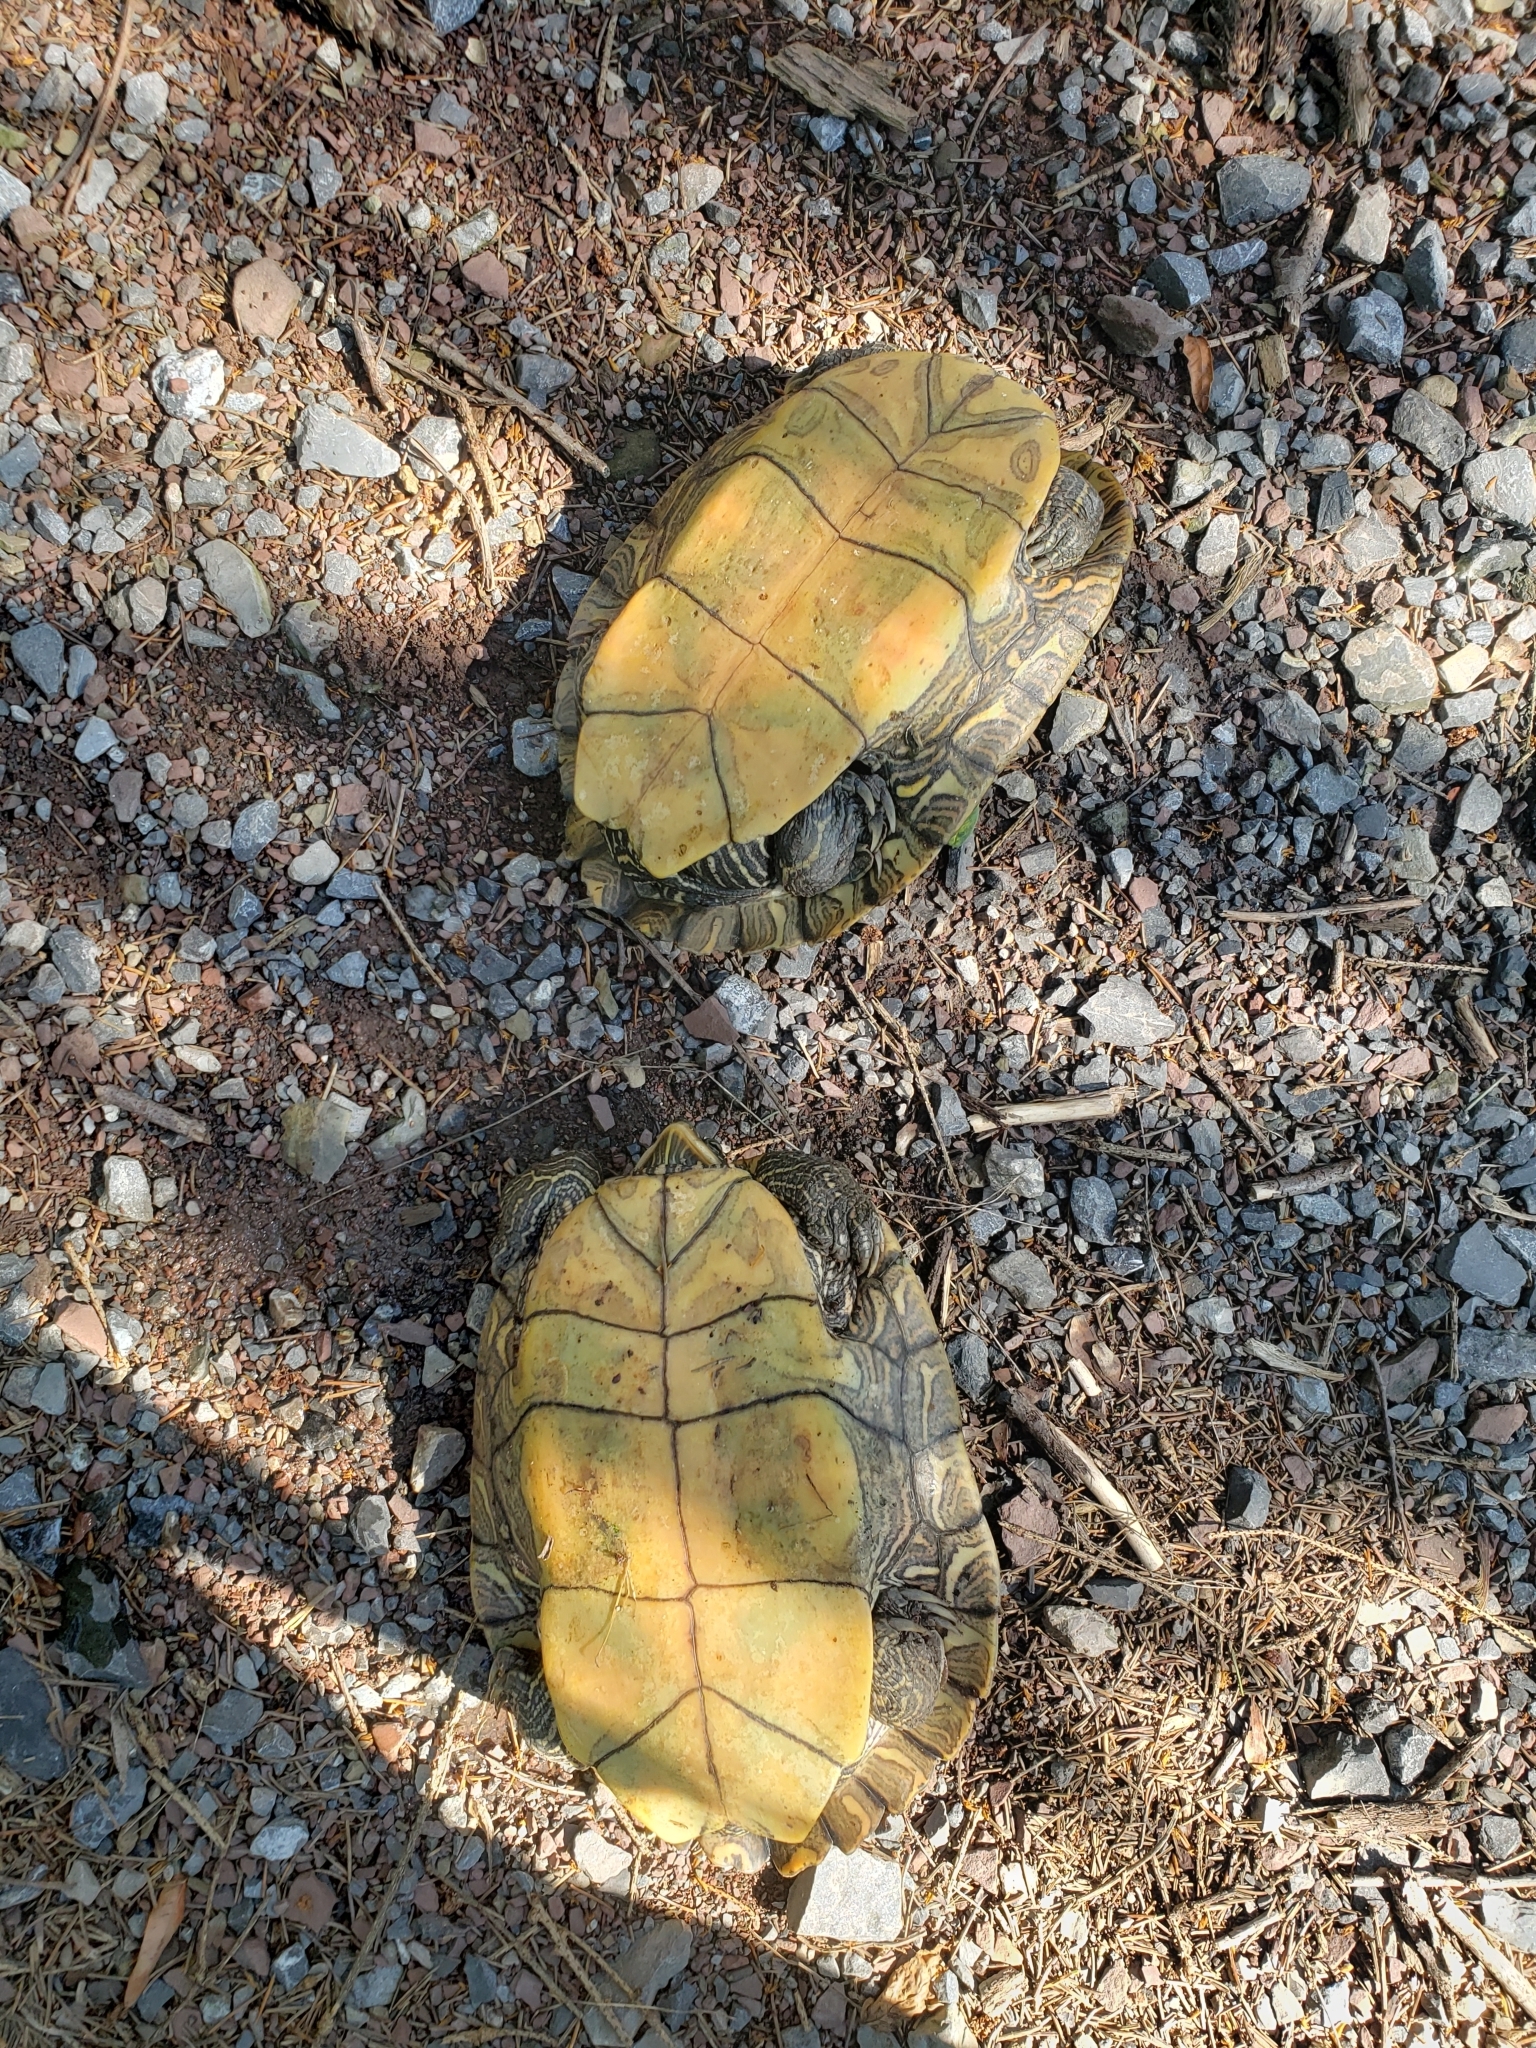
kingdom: Animalia
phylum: Chordata
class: Testudines
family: Emydidae
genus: Graptemys
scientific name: Graptemys geographica
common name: Common map turtle
